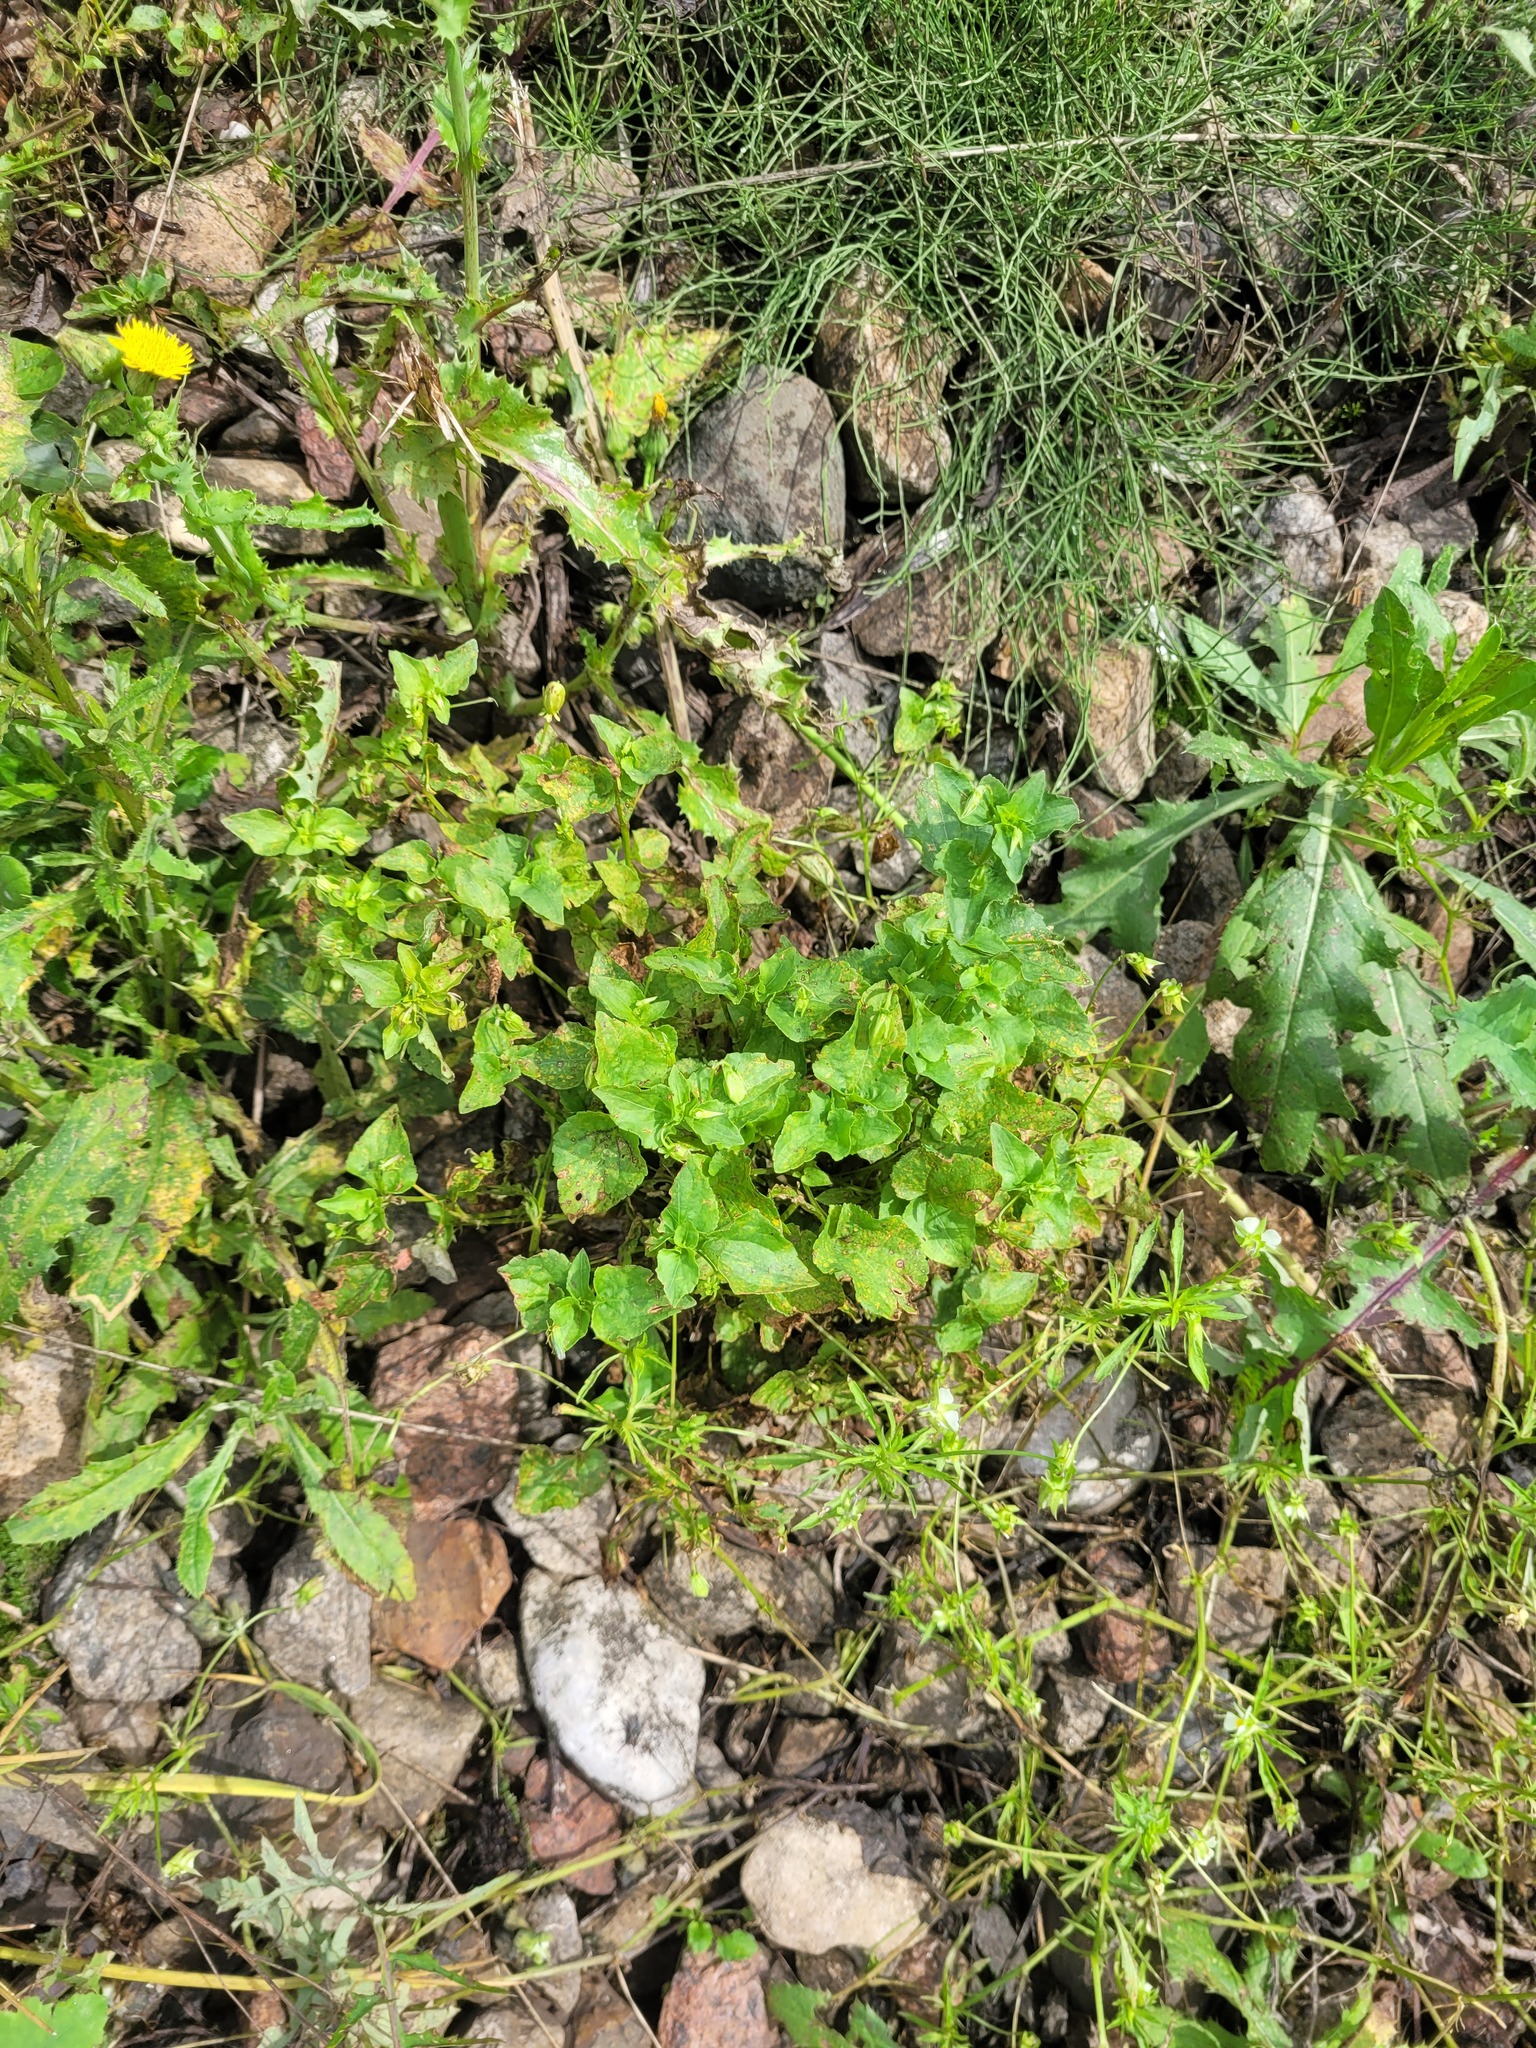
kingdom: Plantae
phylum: Tracheophyta
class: Magnoliopsida
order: Malpighiales
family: Violaceae
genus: Viola
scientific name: Viola riviniana
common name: Common dog-violet
